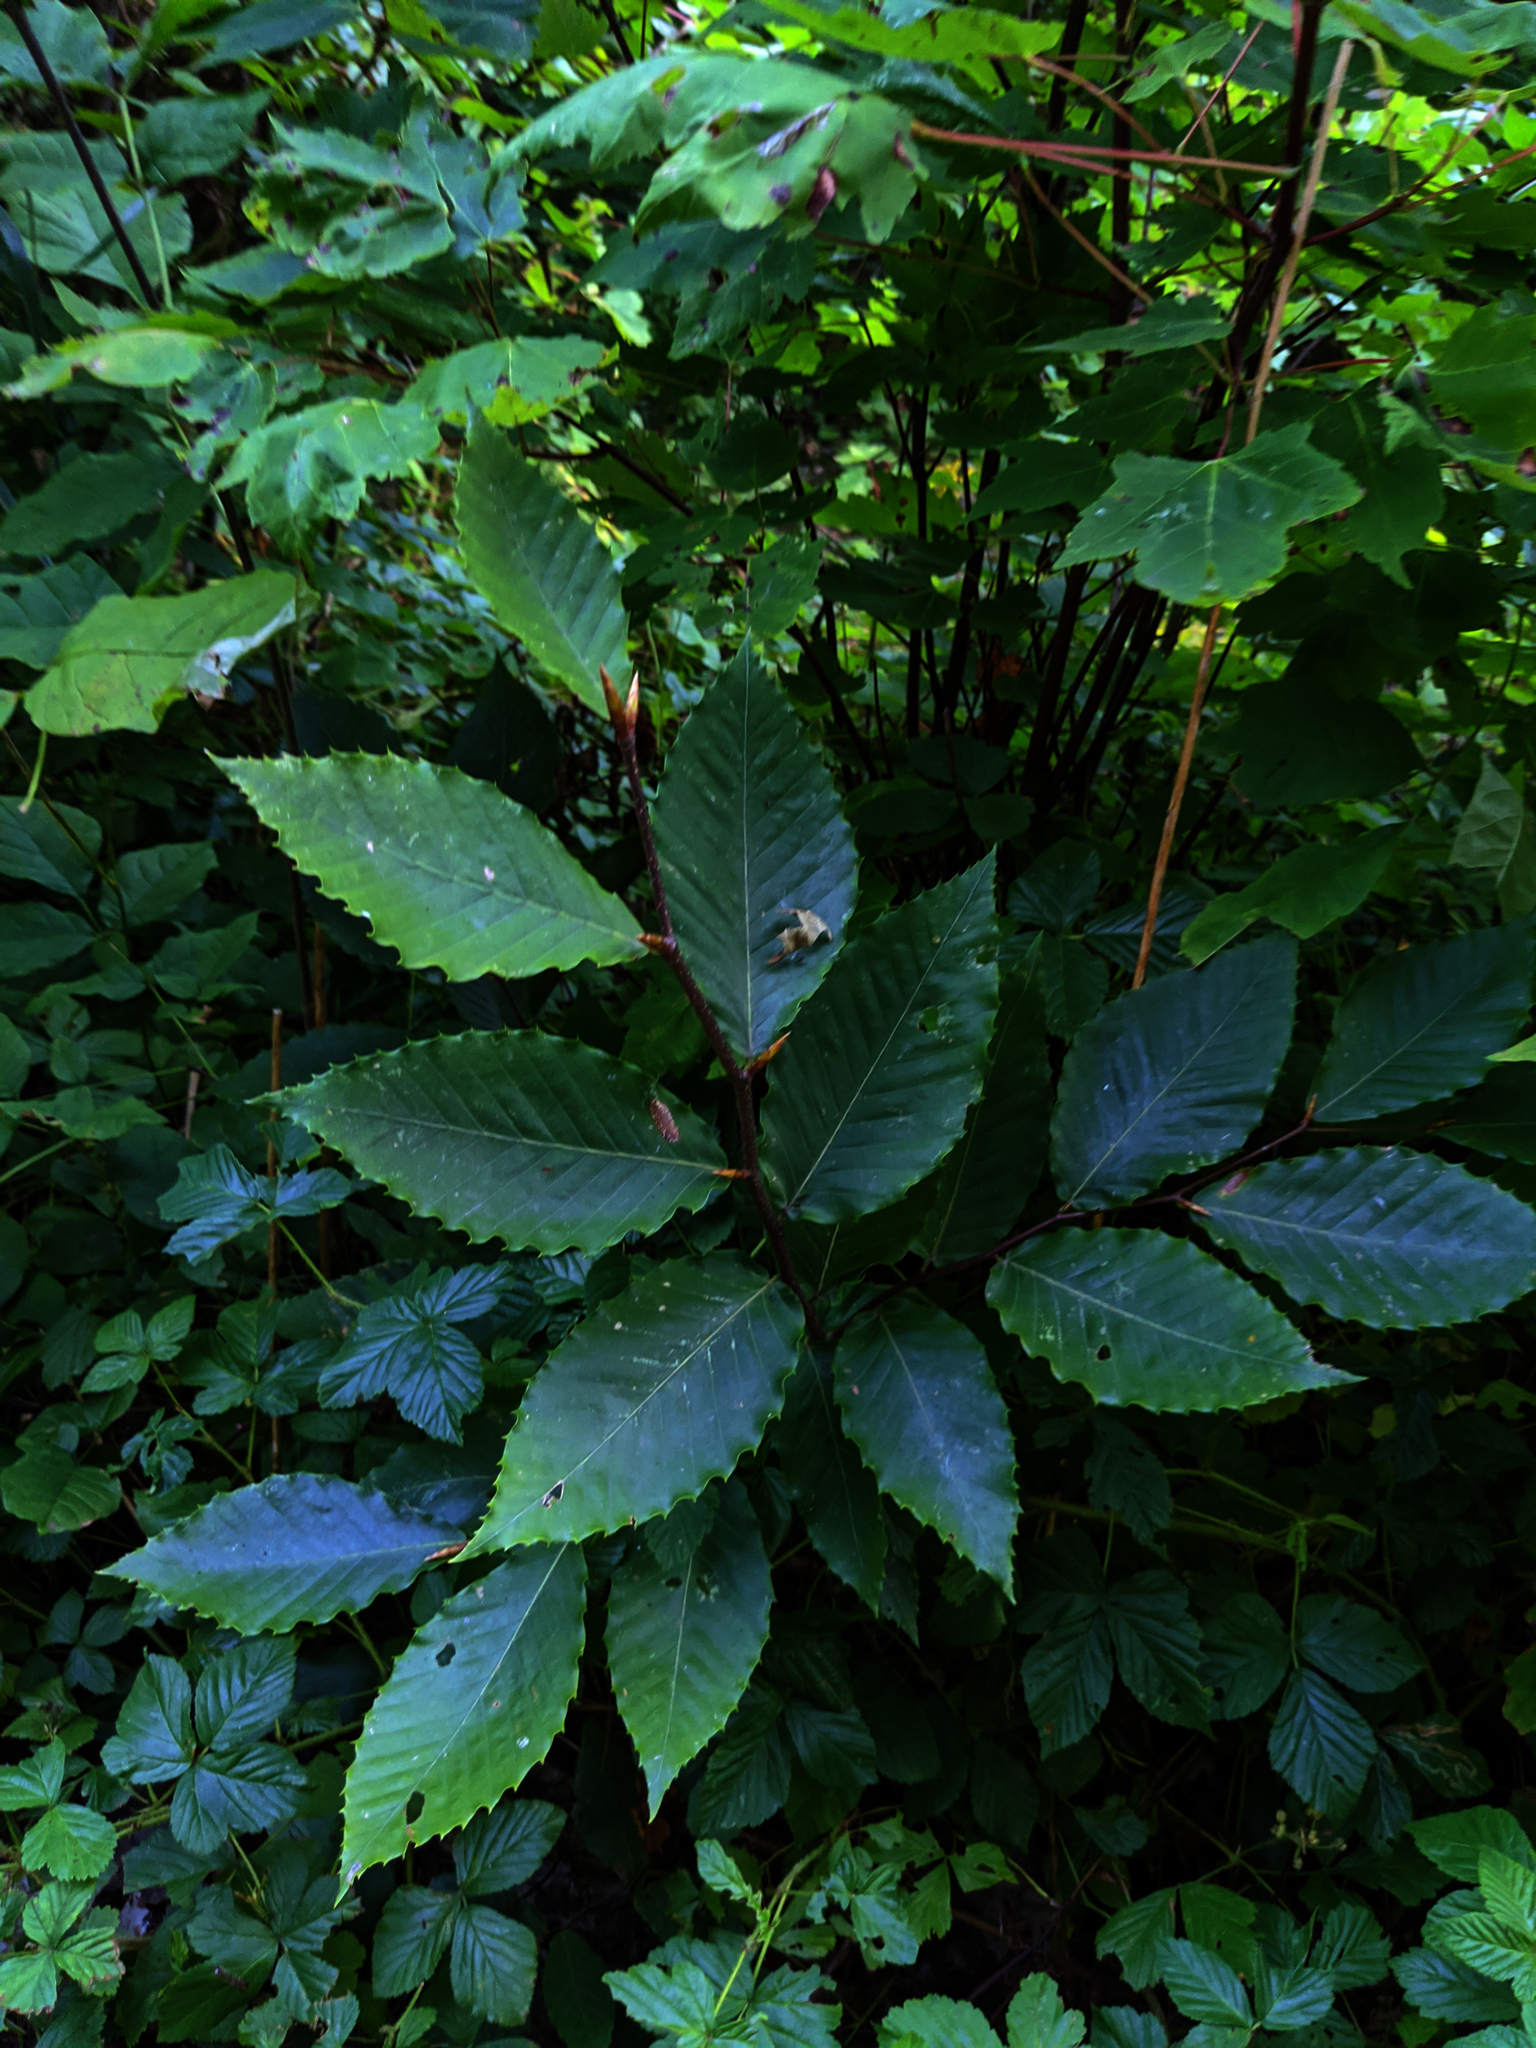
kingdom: Plantae
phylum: Tracheophyta
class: Magnoliopsida
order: Fagales
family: Fagaceae
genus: Fagus
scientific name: Fagus grandifolia
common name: American beech
